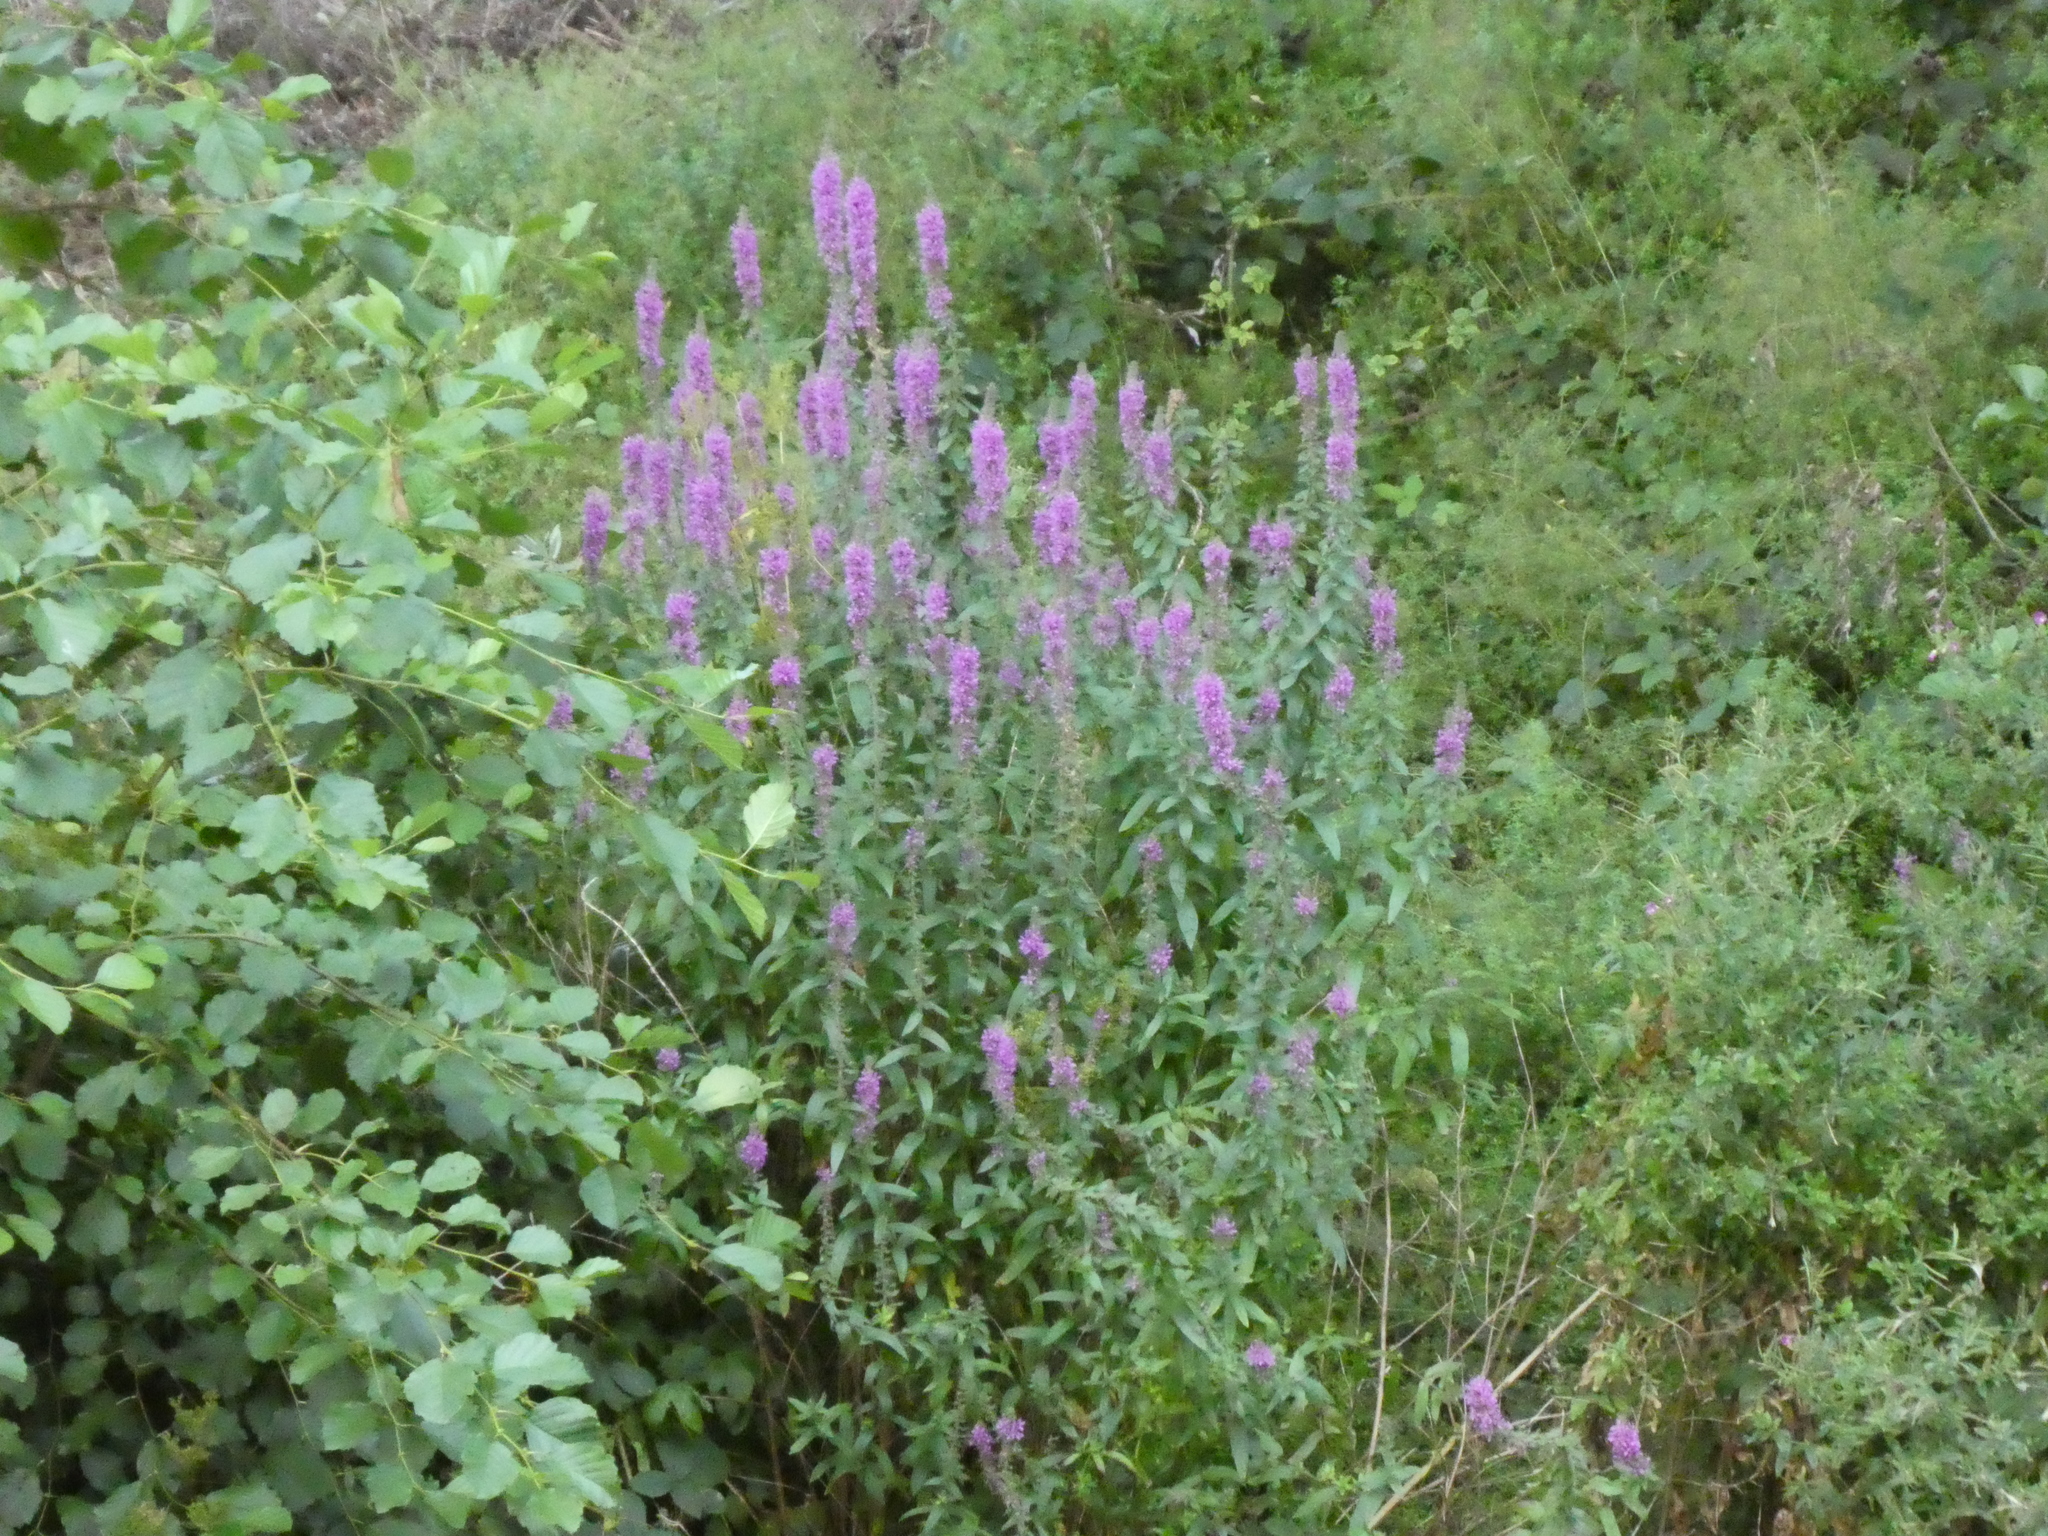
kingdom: Plantae
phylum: Tracheophyta
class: Magnoliopsida
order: Myrtales
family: Lythraceae
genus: Lythrum
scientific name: Lythrum salicaria
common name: Purple loosestrife
